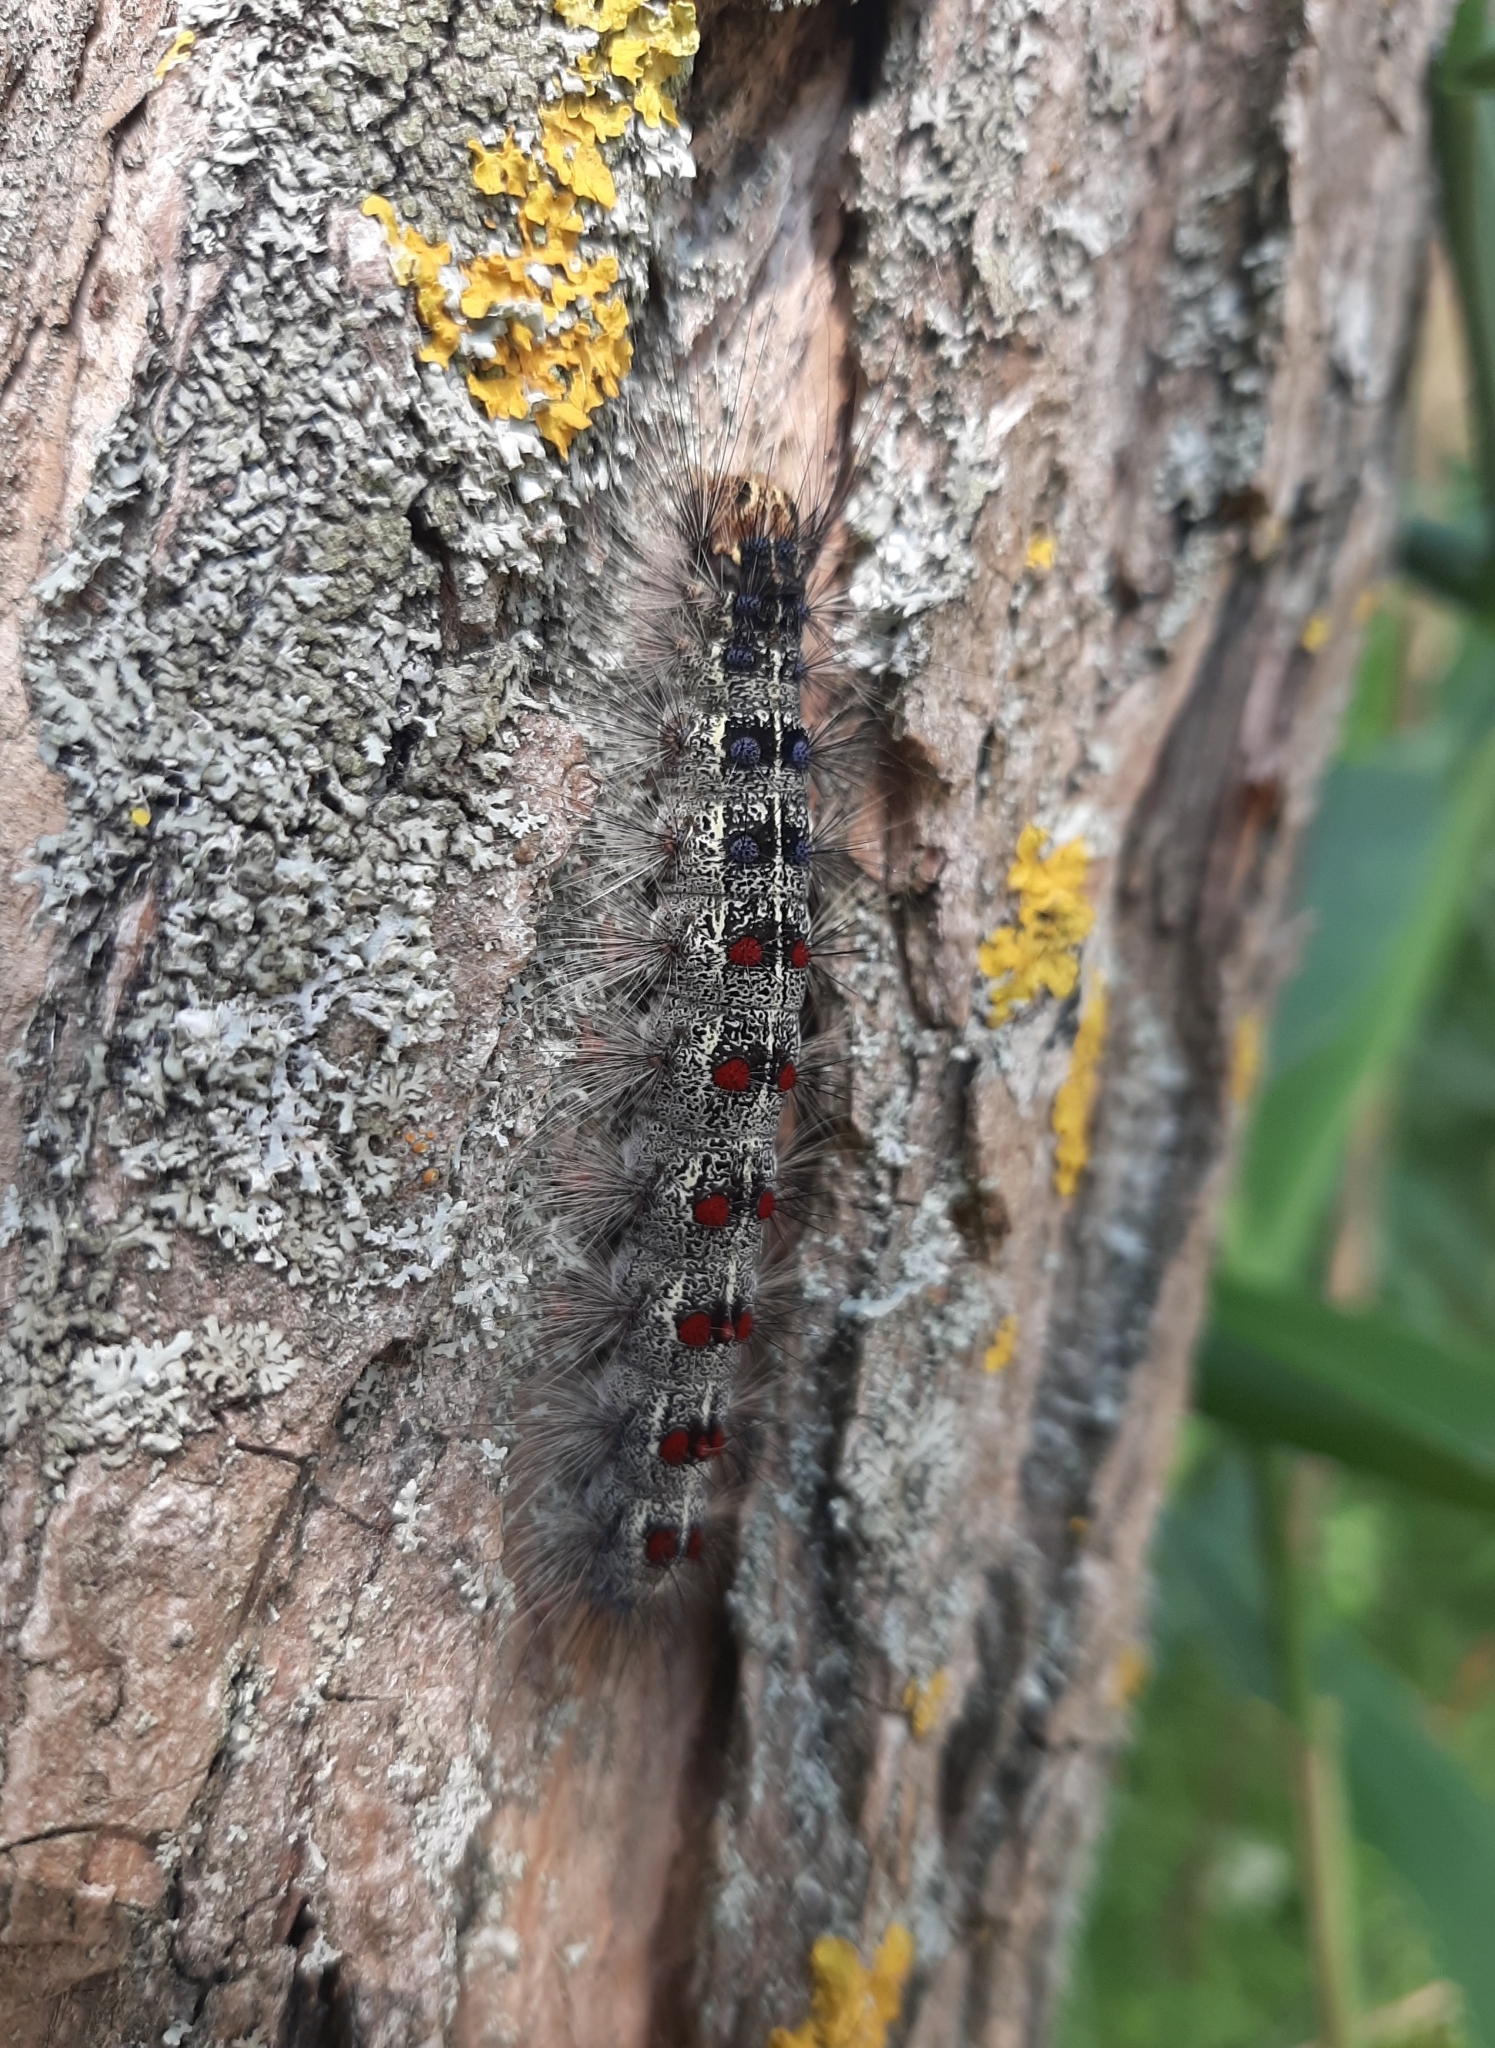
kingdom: Animalia
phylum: Arthropoda
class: Insecta
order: Lepidoptera
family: Erebidae
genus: Lymantria
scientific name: Lymantria dispar
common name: Gypsy moth
